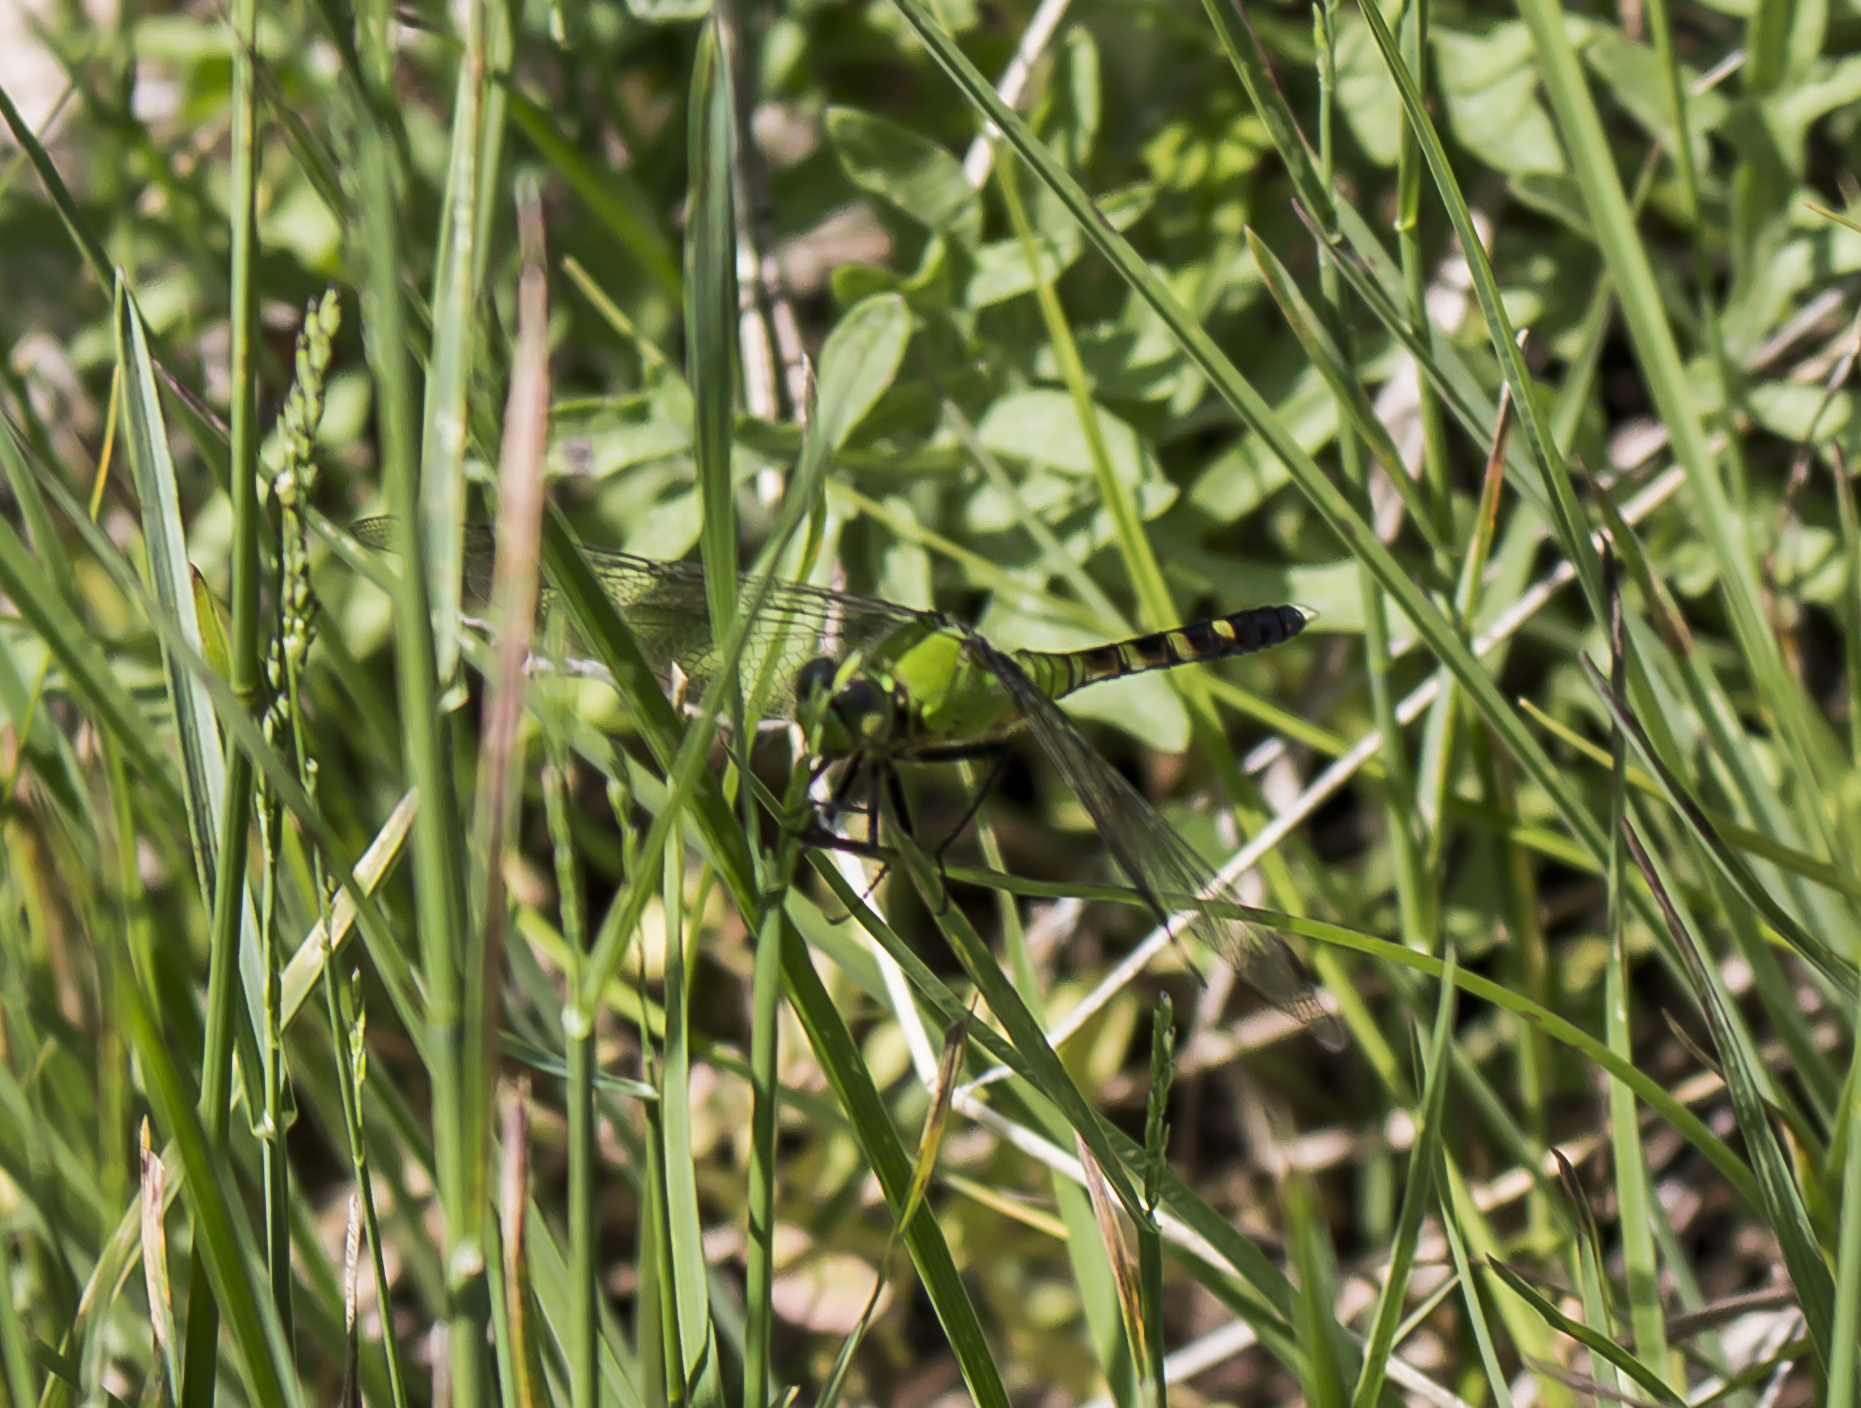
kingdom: Animalia
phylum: Arthropoda
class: Insecta
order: Odonata
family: Libellulidae
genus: Erythemis
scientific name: Erythemis simplicicollis
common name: Eastern pondhawk
